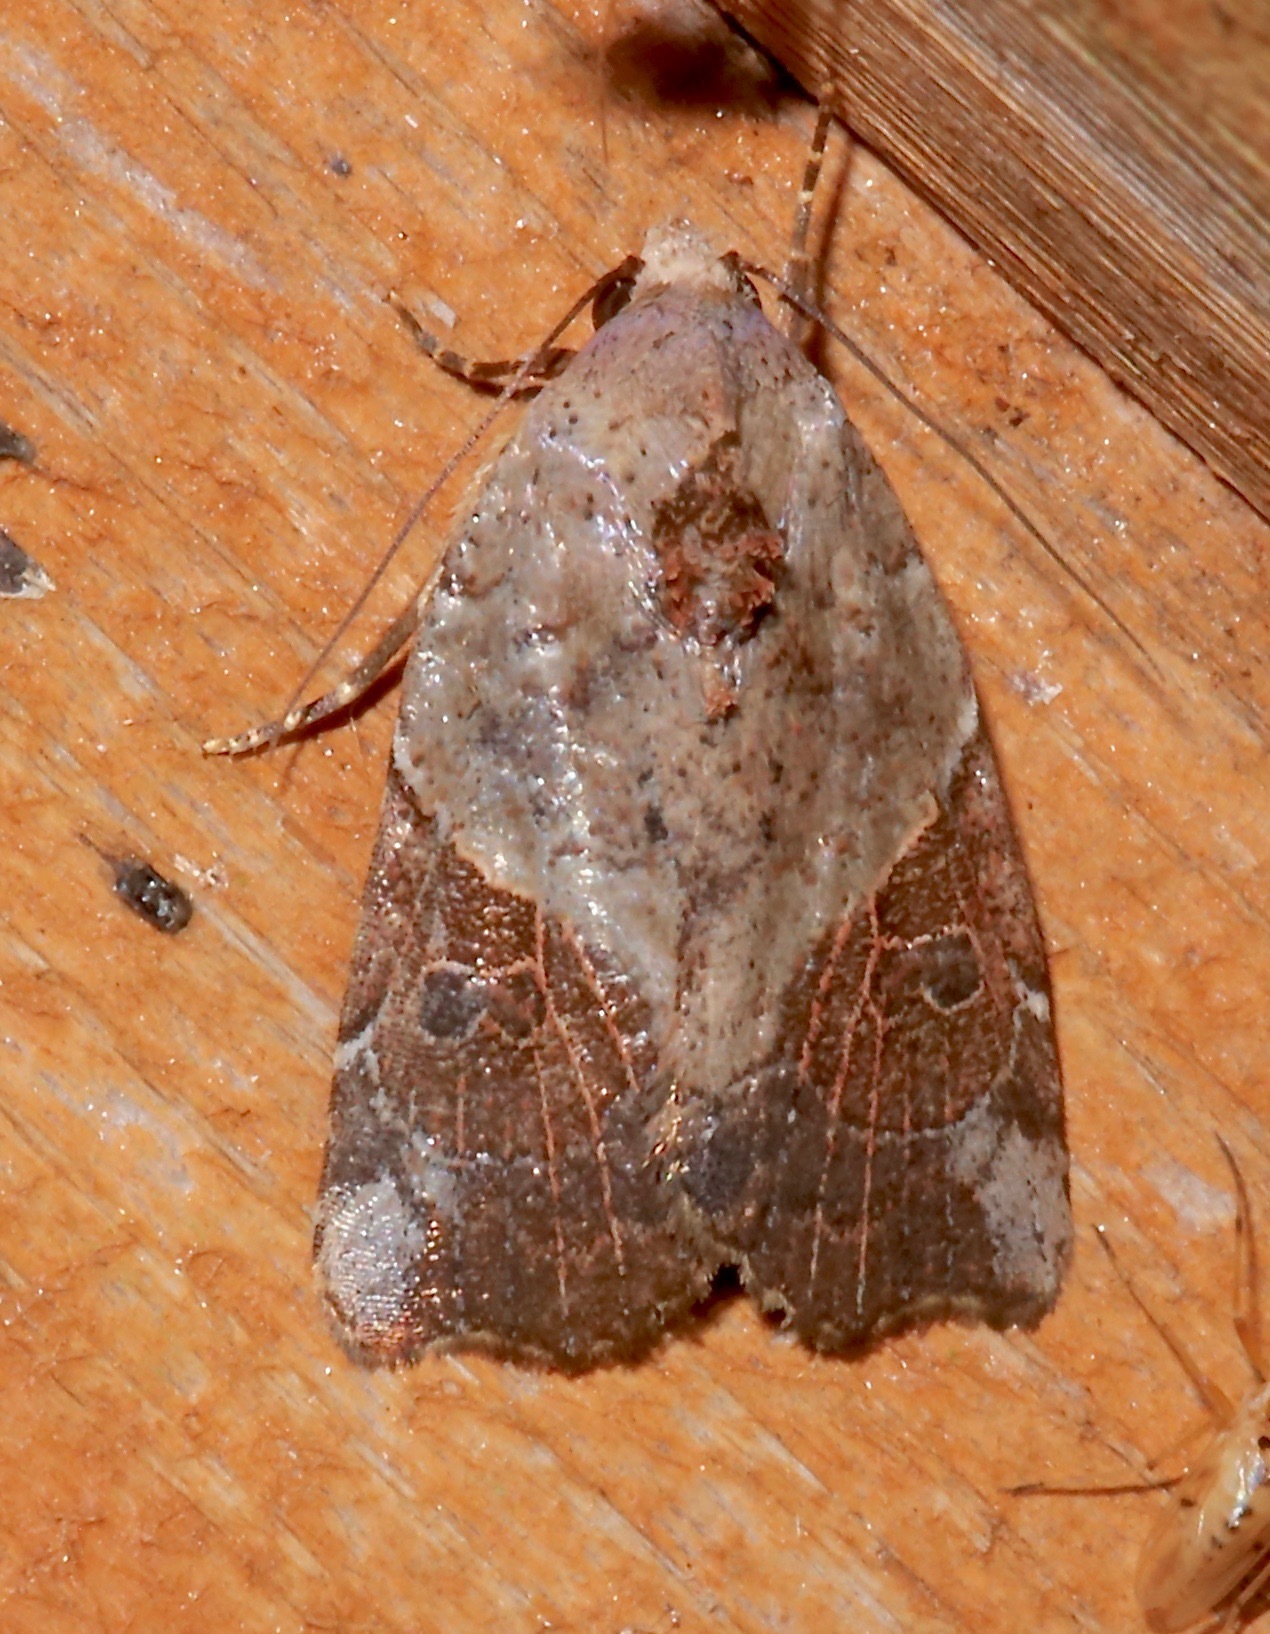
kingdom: Animalia
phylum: Arthropoda
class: Insecta
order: Lepidoptera
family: Noctuidae
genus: Gonodes
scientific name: Gonodes liquida
